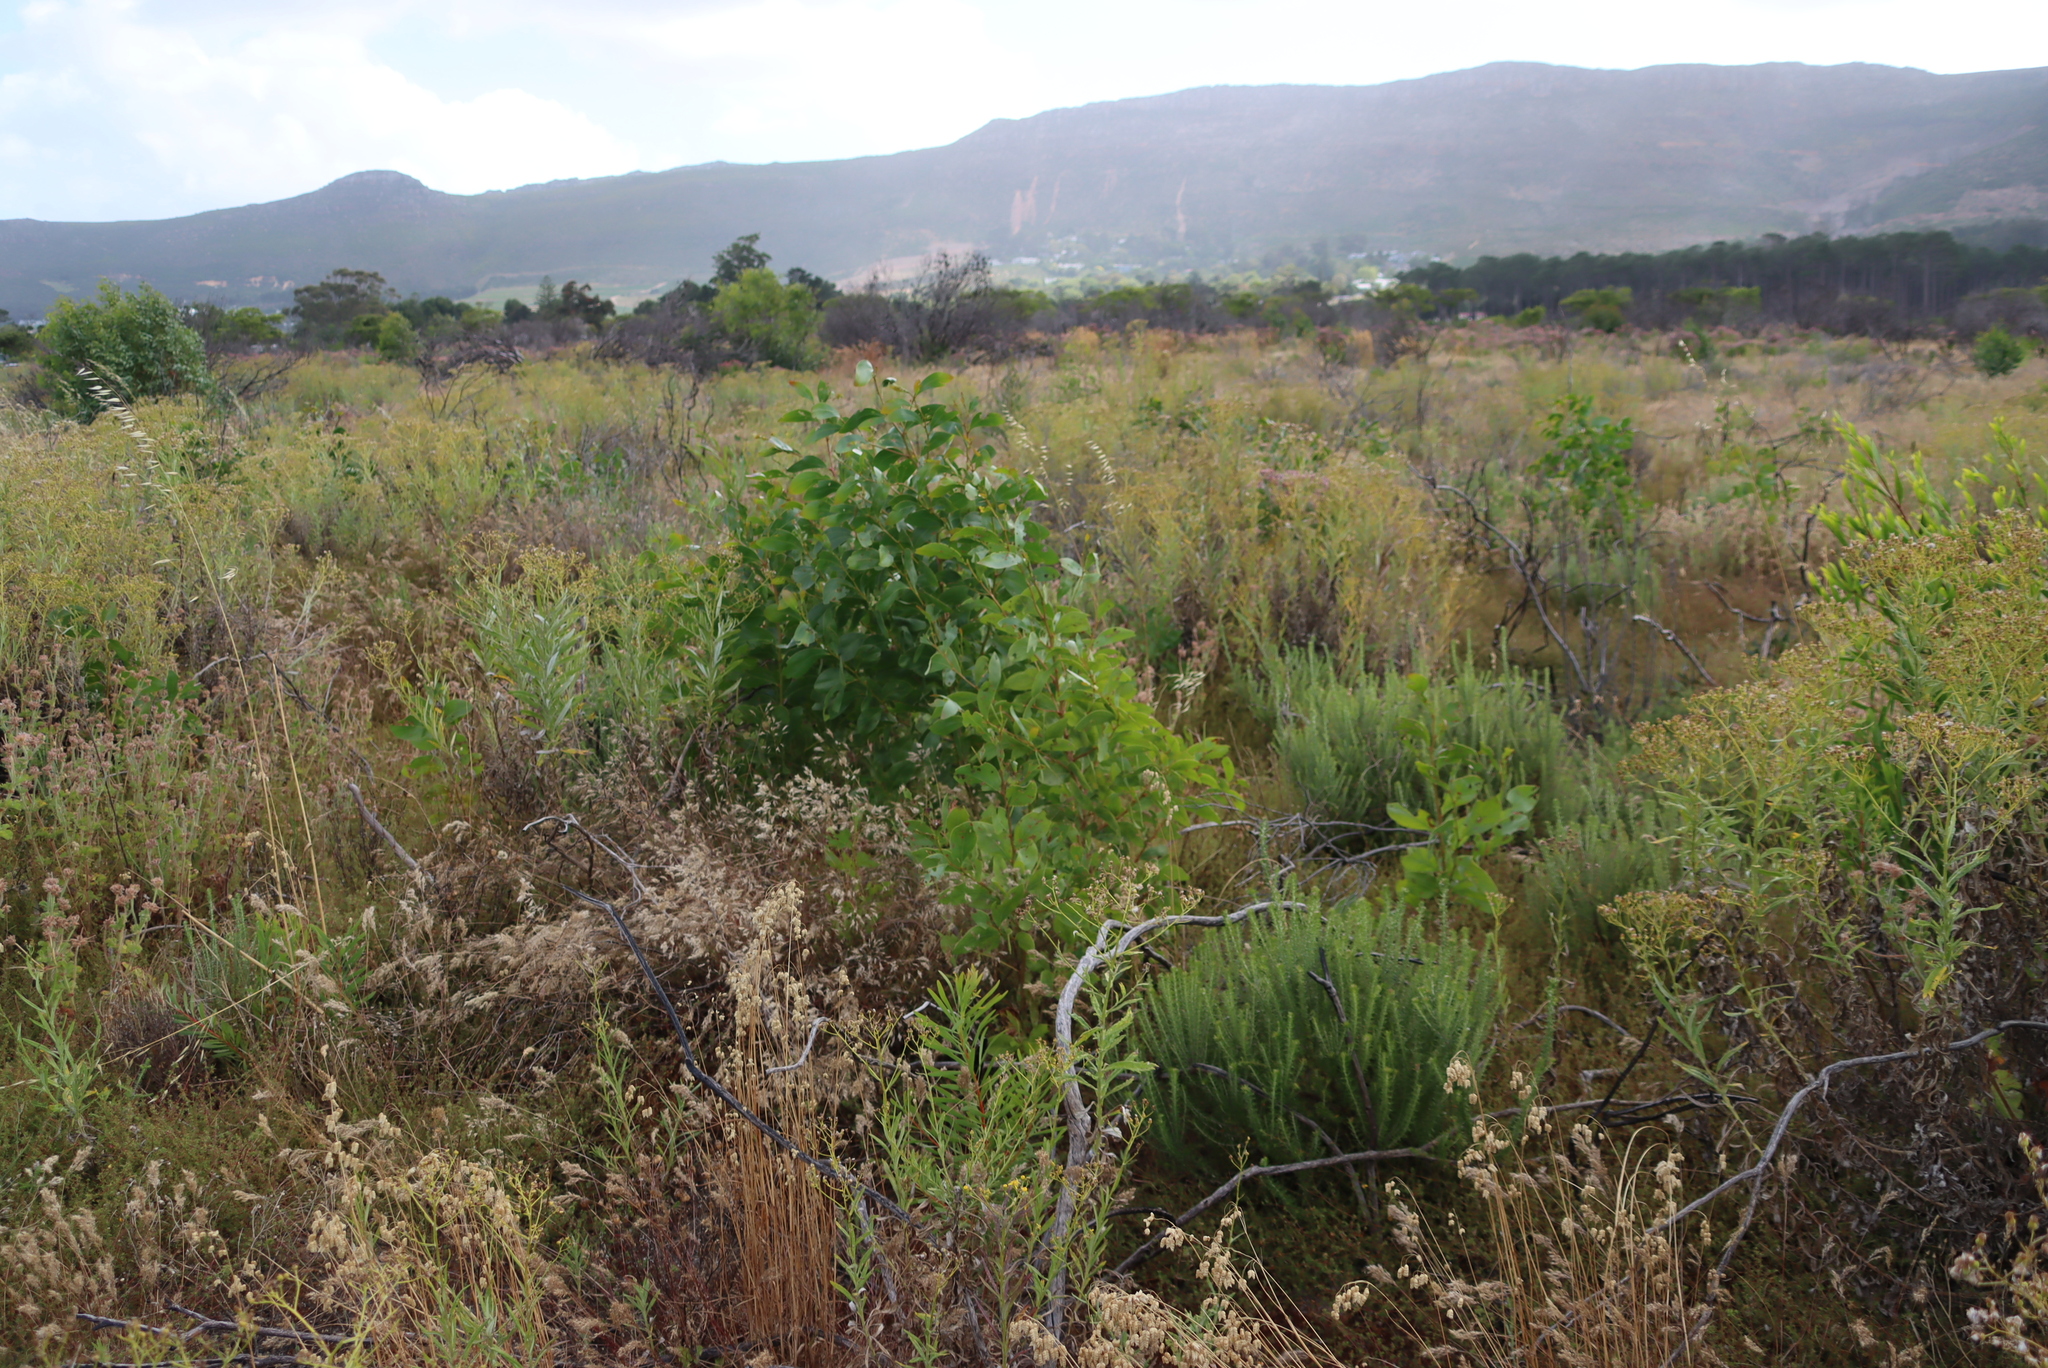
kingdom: Plantae
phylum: Tracheophyta
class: Magnoliopsida
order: Fabales
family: Fabaceae
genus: Acacia
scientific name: Acacia pycnantha
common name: Golden wattle
